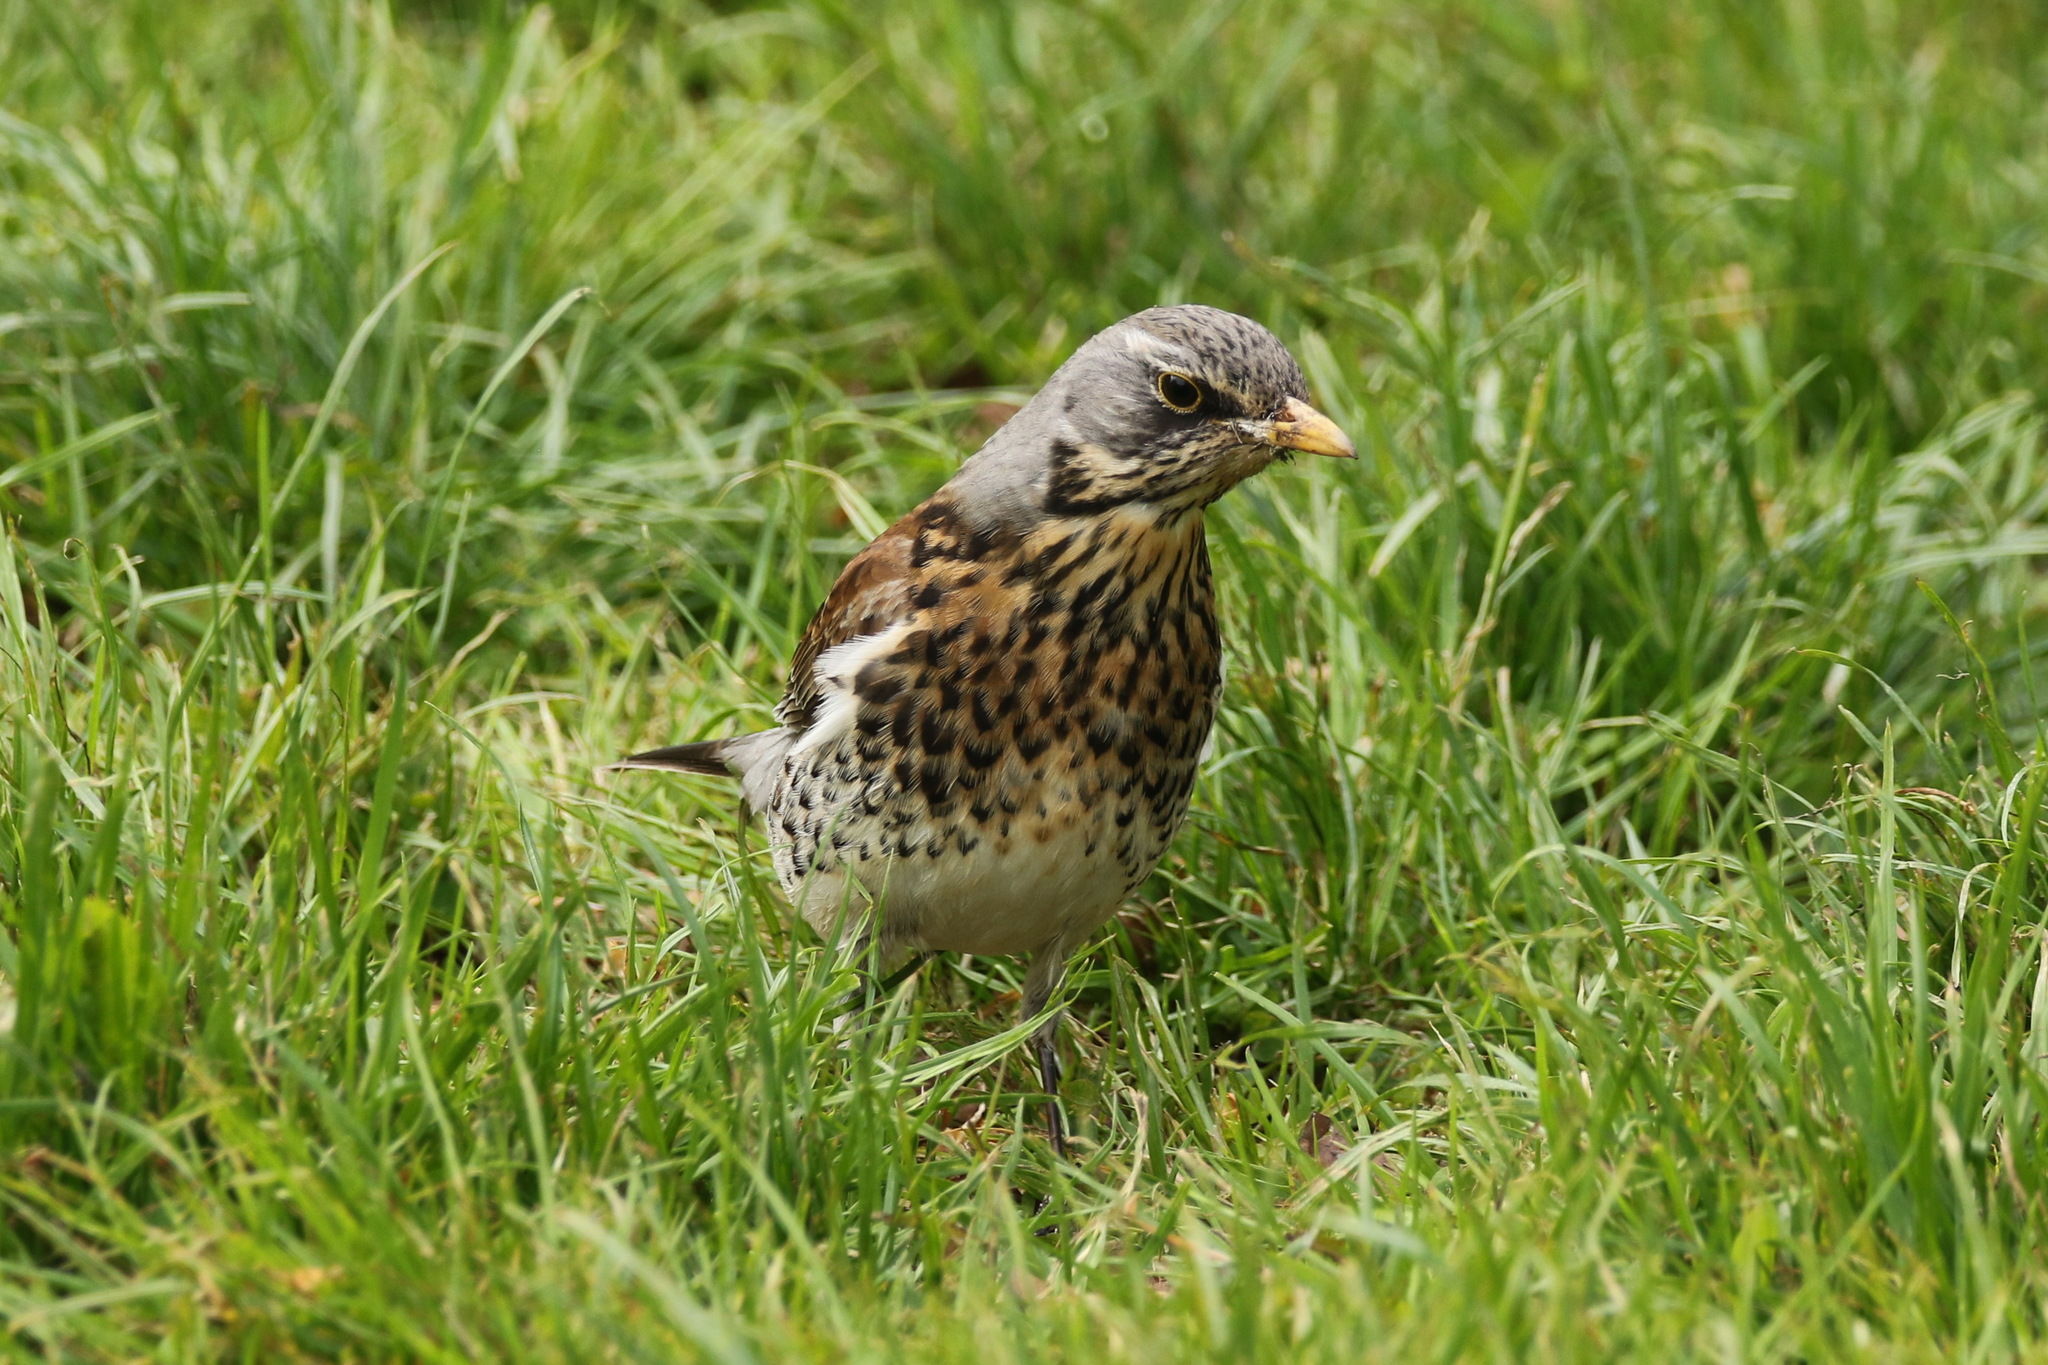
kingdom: Animalia
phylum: Chordata
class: Aves
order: Passeriformes
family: Turdidae
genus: Turdus
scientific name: Turdus pilaris
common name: Fieldfare
